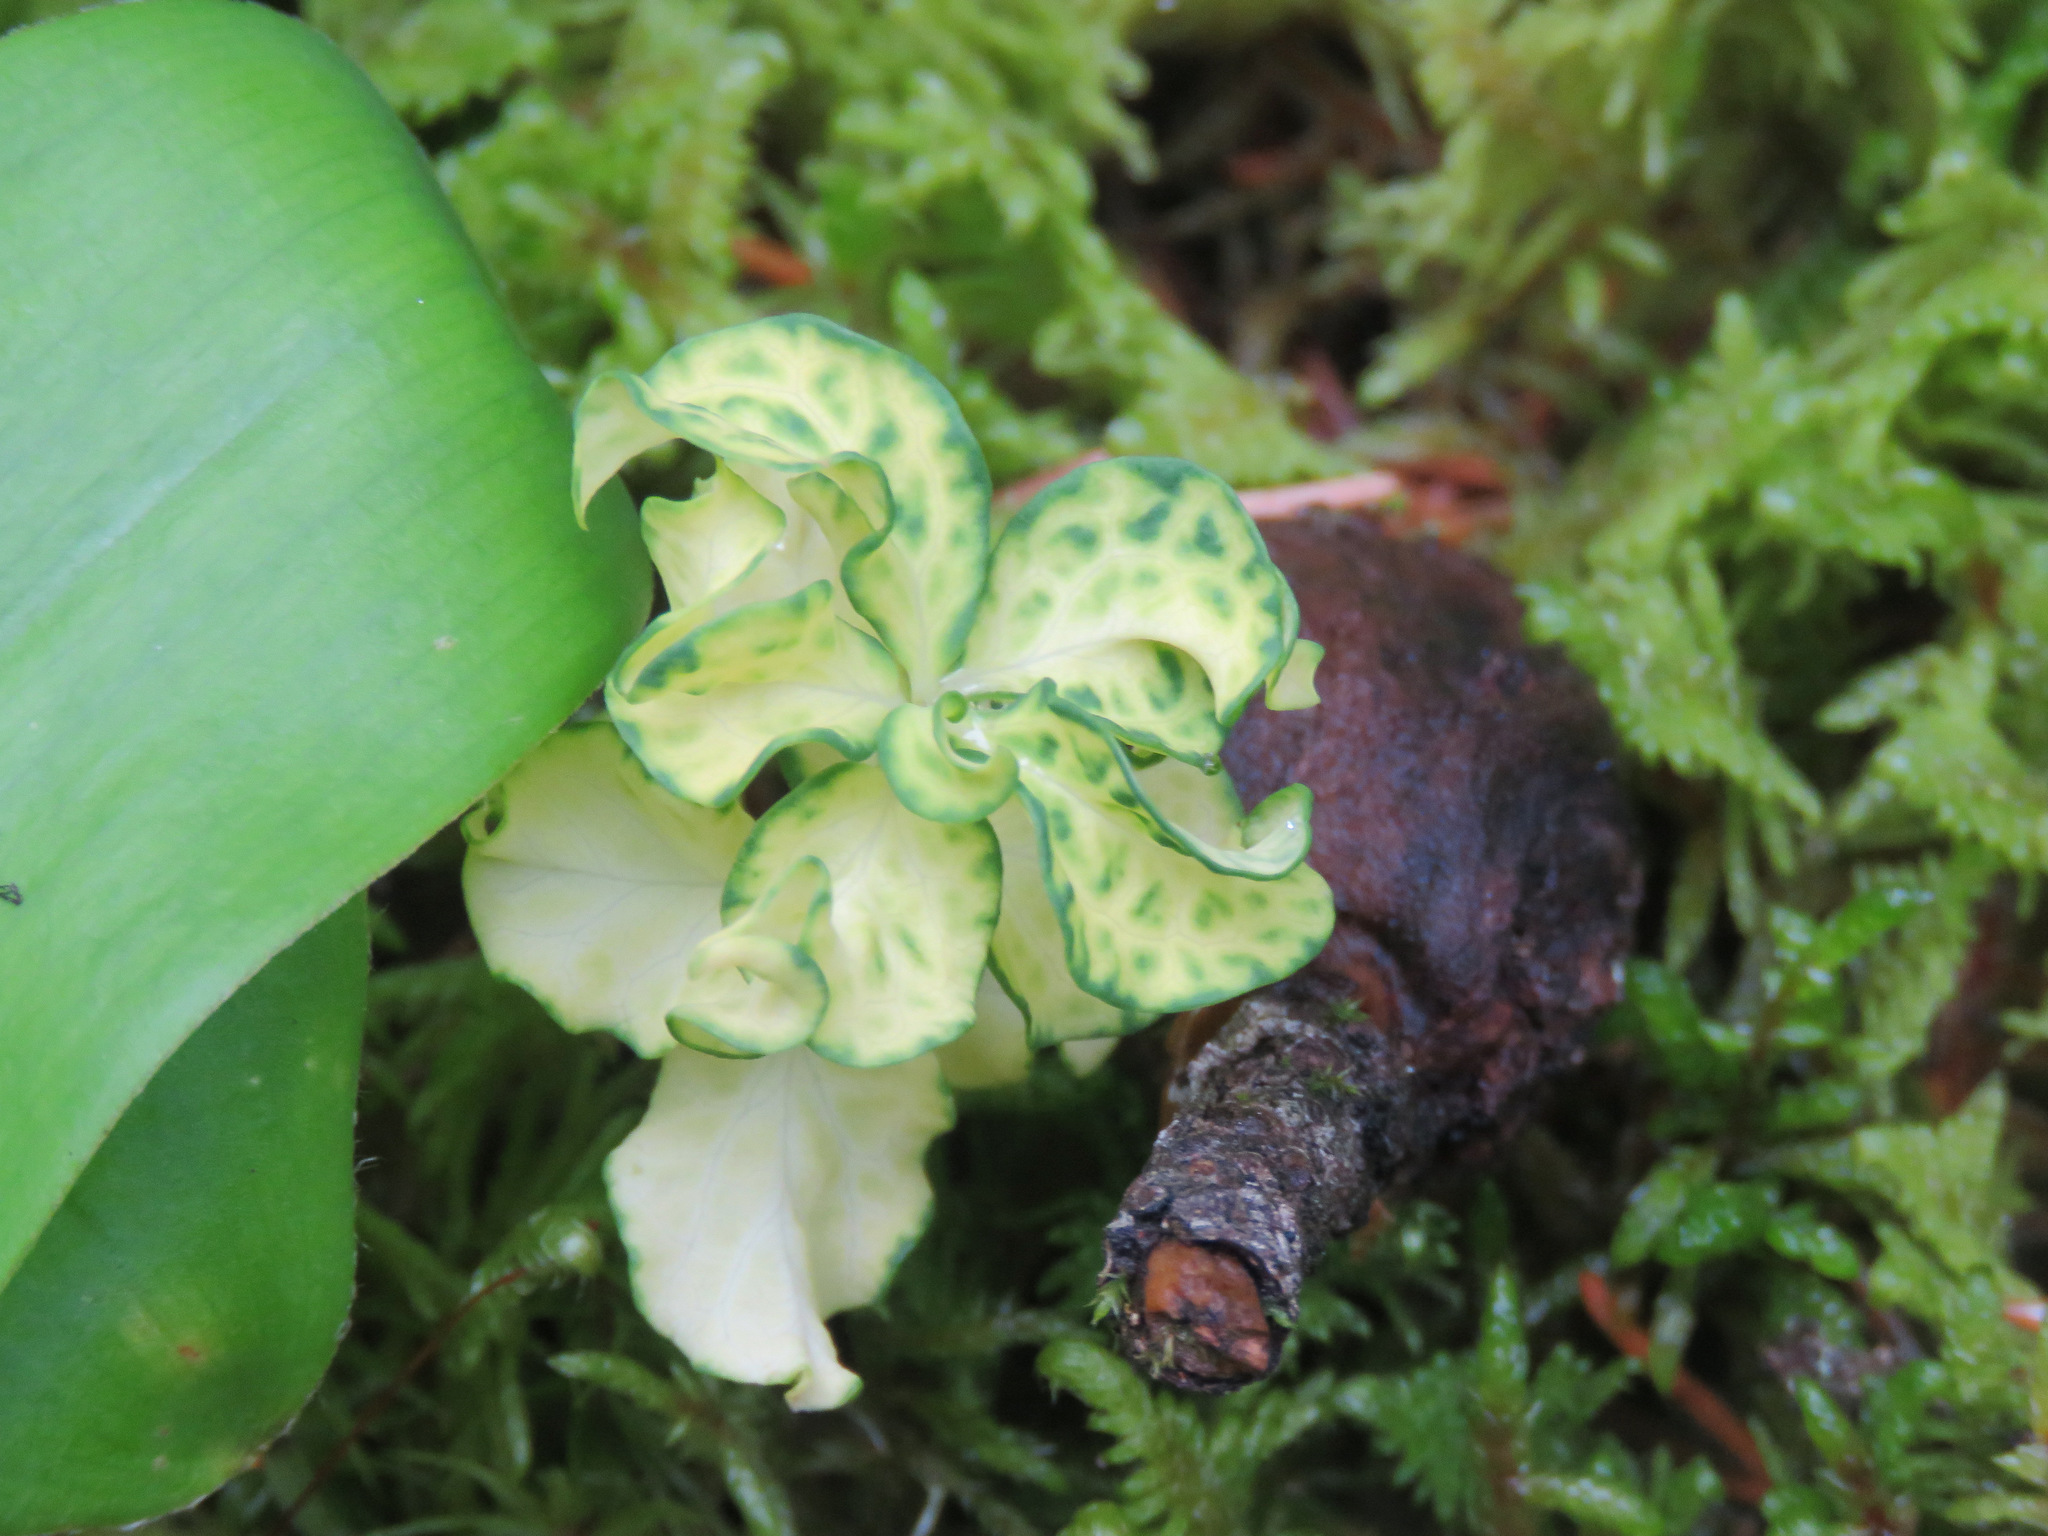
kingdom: Plantae
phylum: Tracheophyta
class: Magnoliopsida
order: Santalales
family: Comandraceae
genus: Geocaulon
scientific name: Geocaulon lividum
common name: Earthberry
